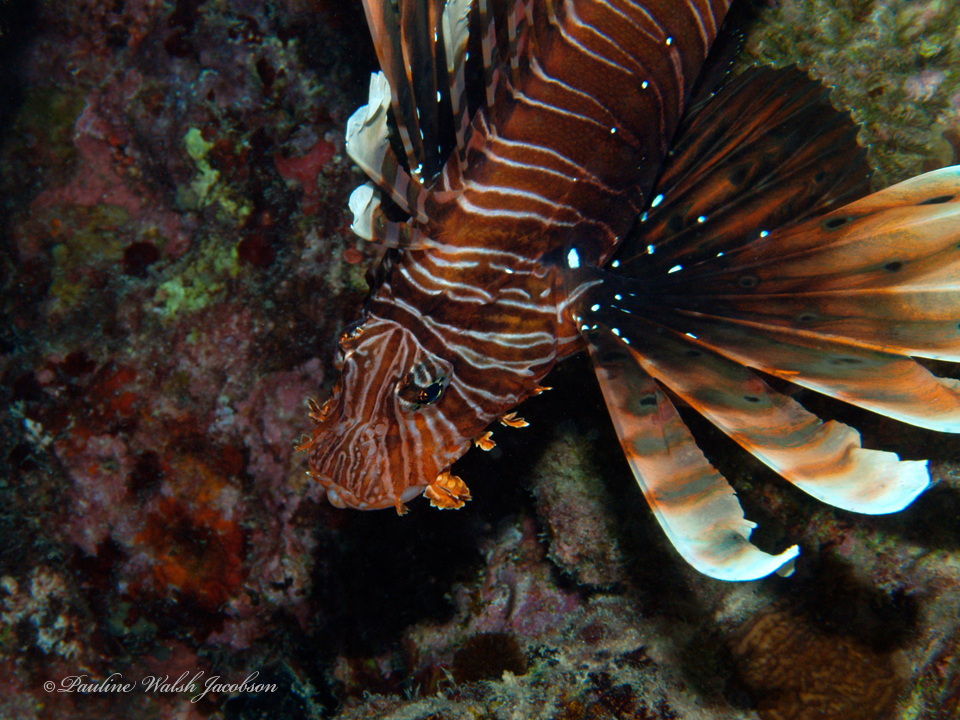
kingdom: Animalia
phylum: Chordata
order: Scorpaeniformes
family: Scorpaenidae
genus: Pterois
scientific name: Pterois miles
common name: Devil firefish
